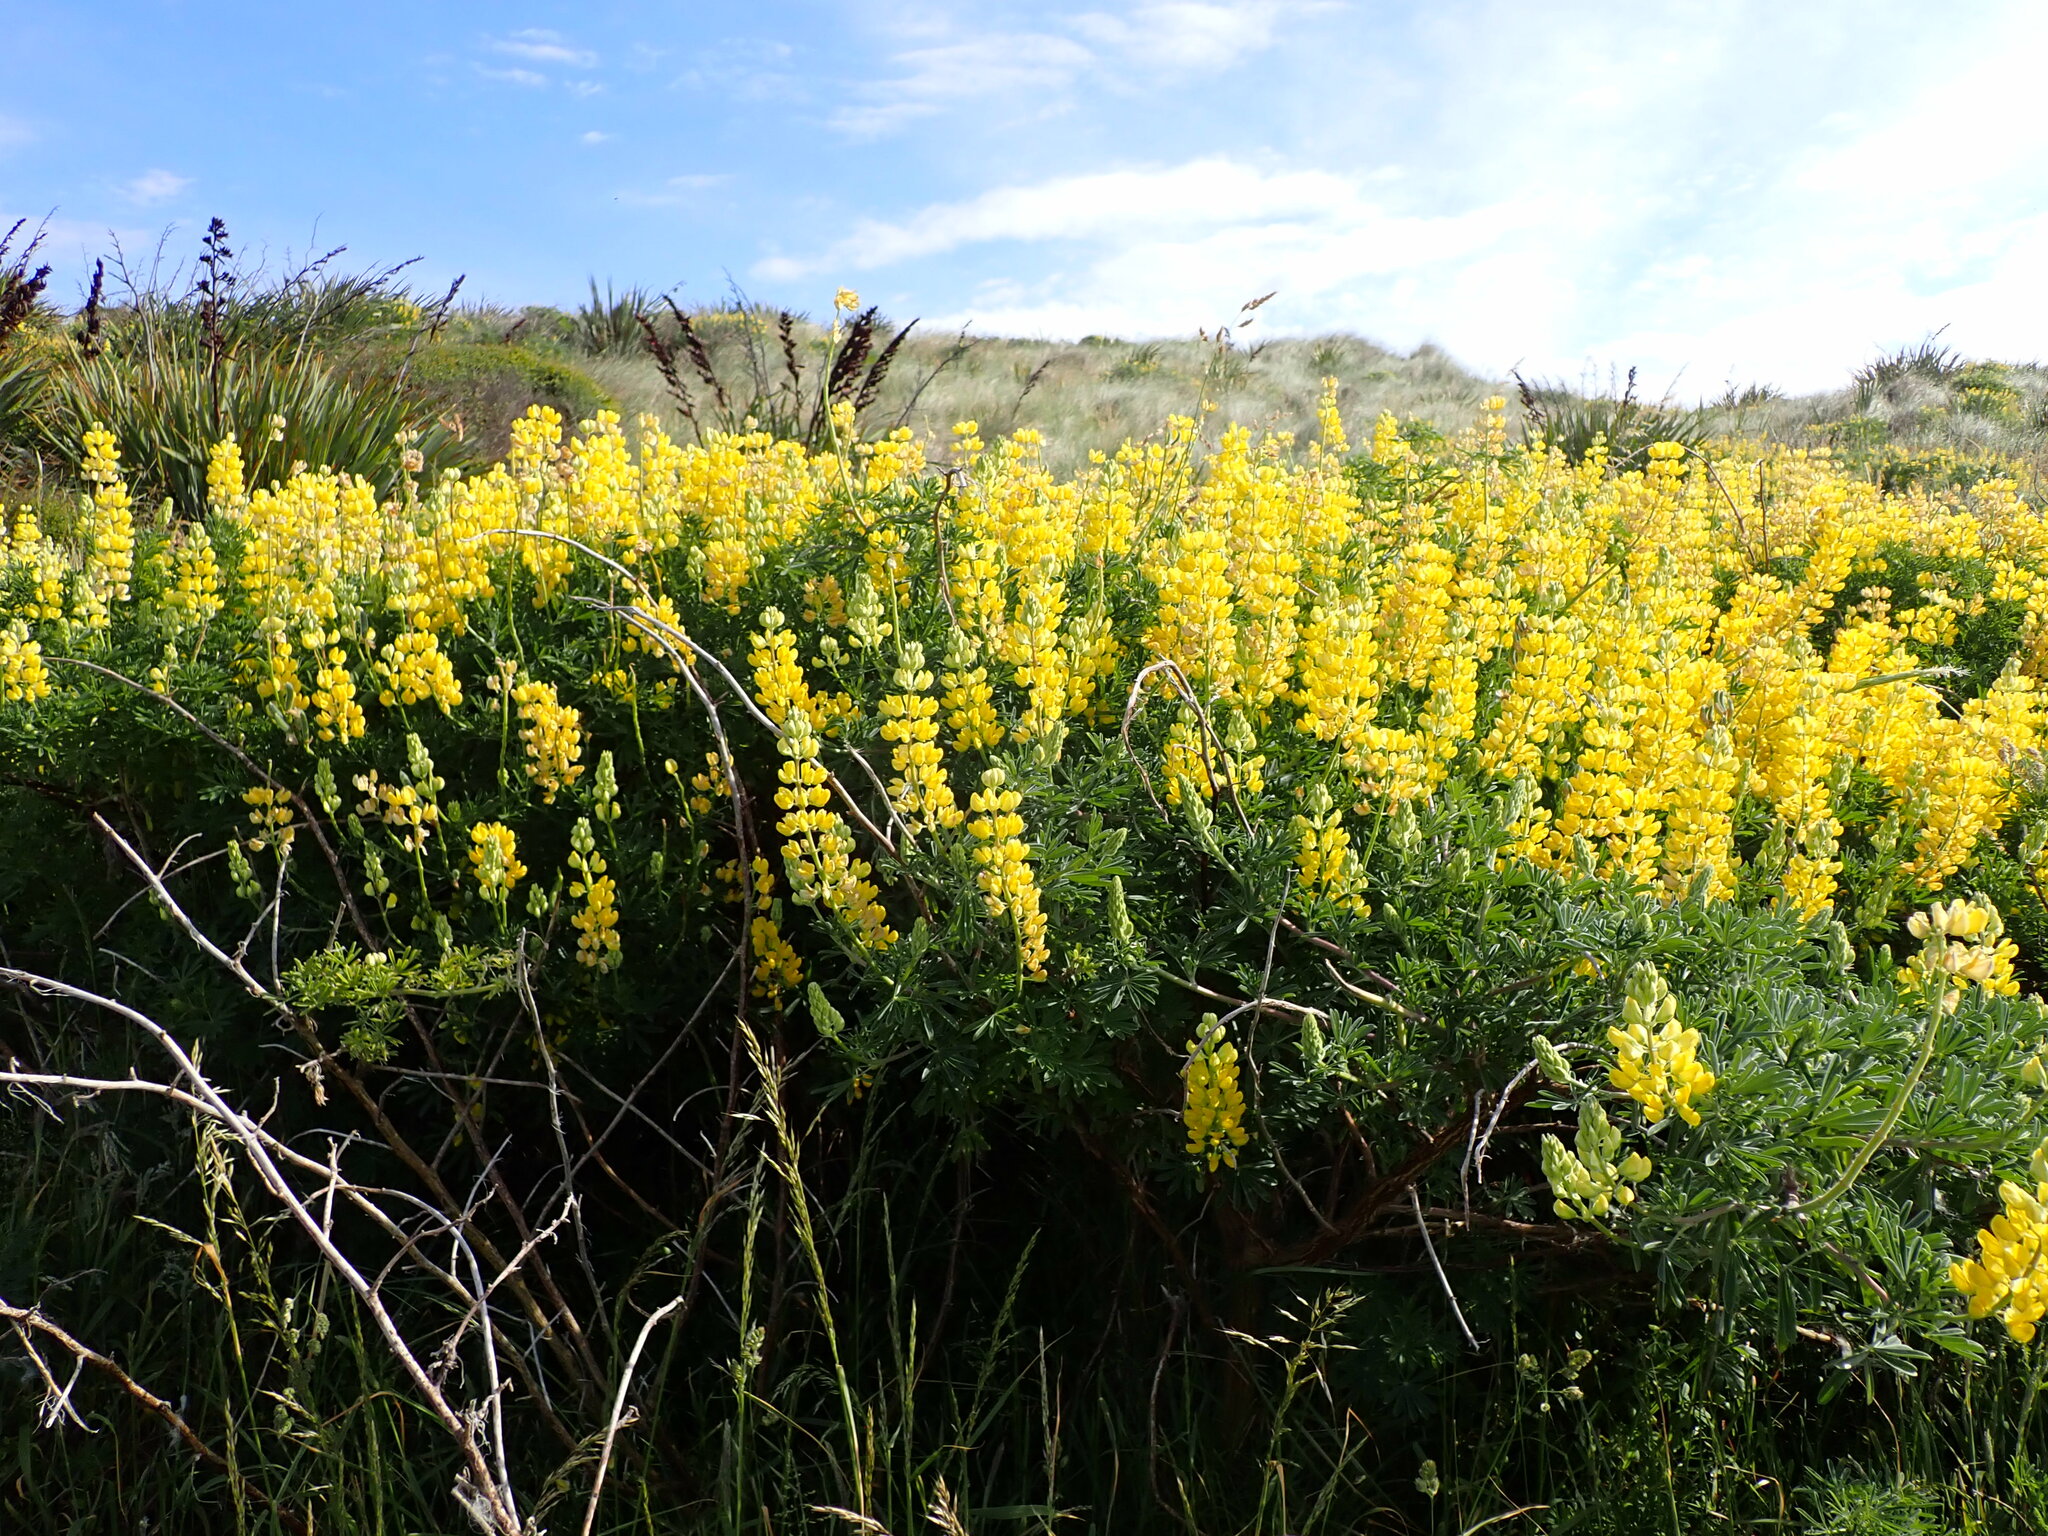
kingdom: Plantae
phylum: Tracheophyta
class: Magnoliopsida
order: Fabales
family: Fabaceae
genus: Lupinus
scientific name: Lupinus arboreus
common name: Yellow bush lupine
